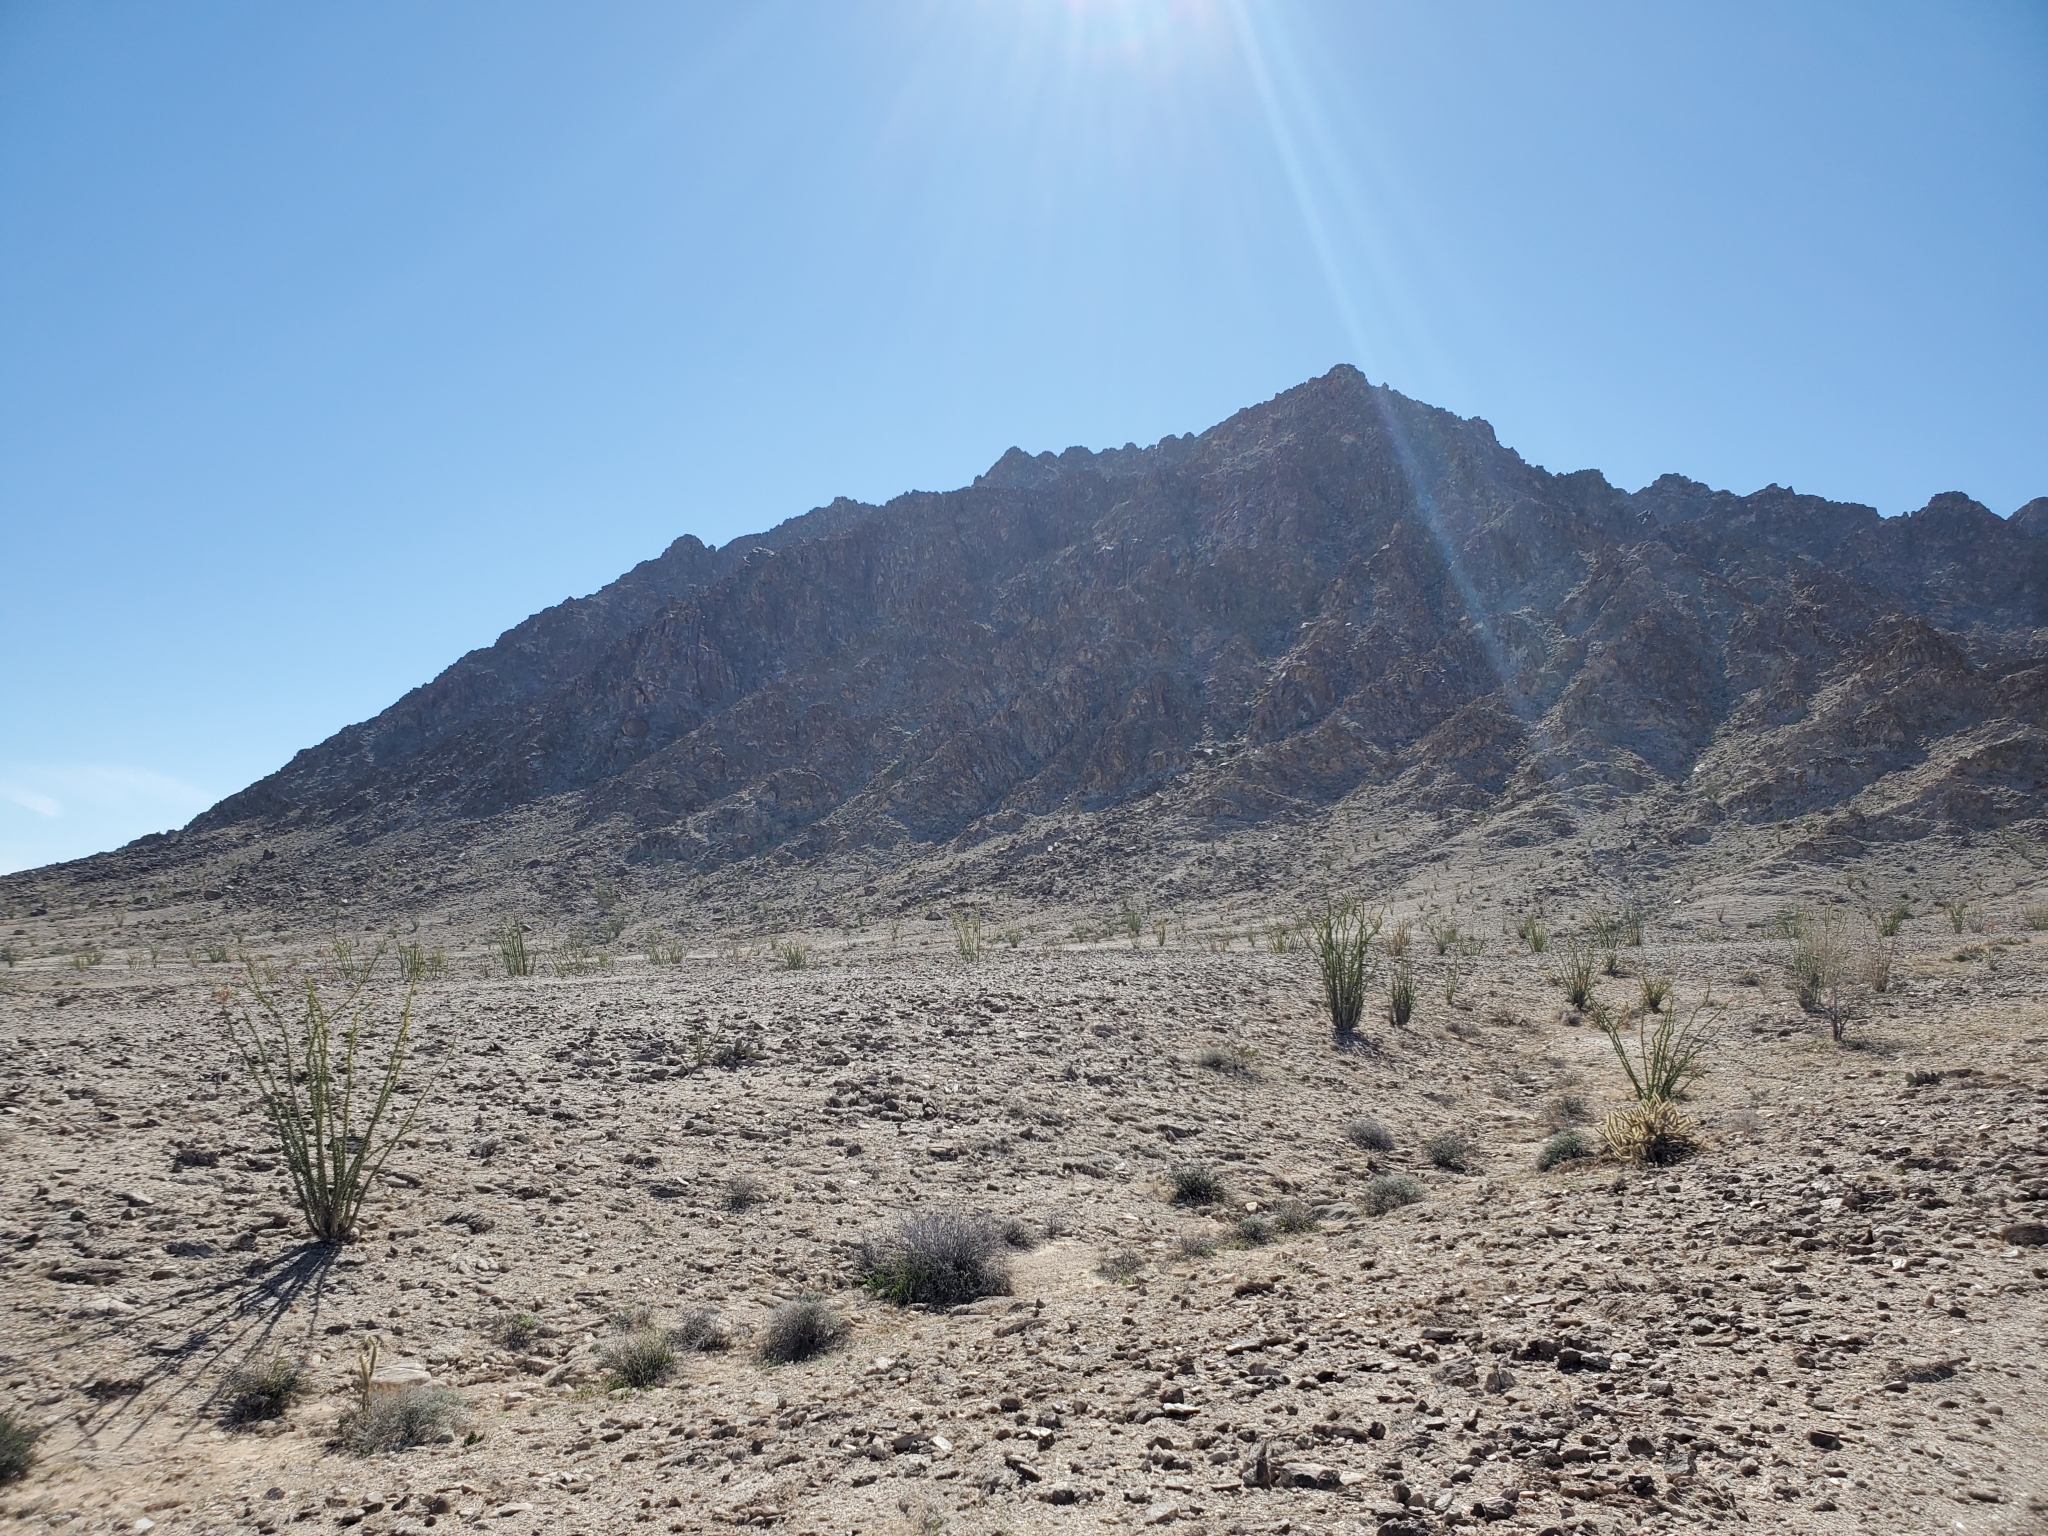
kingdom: Plantae
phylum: Tracheophyta
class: Magnoliopsida
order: Ericales
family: Fouquieriaceae
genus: Fouquieria
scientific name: Fouquieria splendens
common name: Vine-cactus
